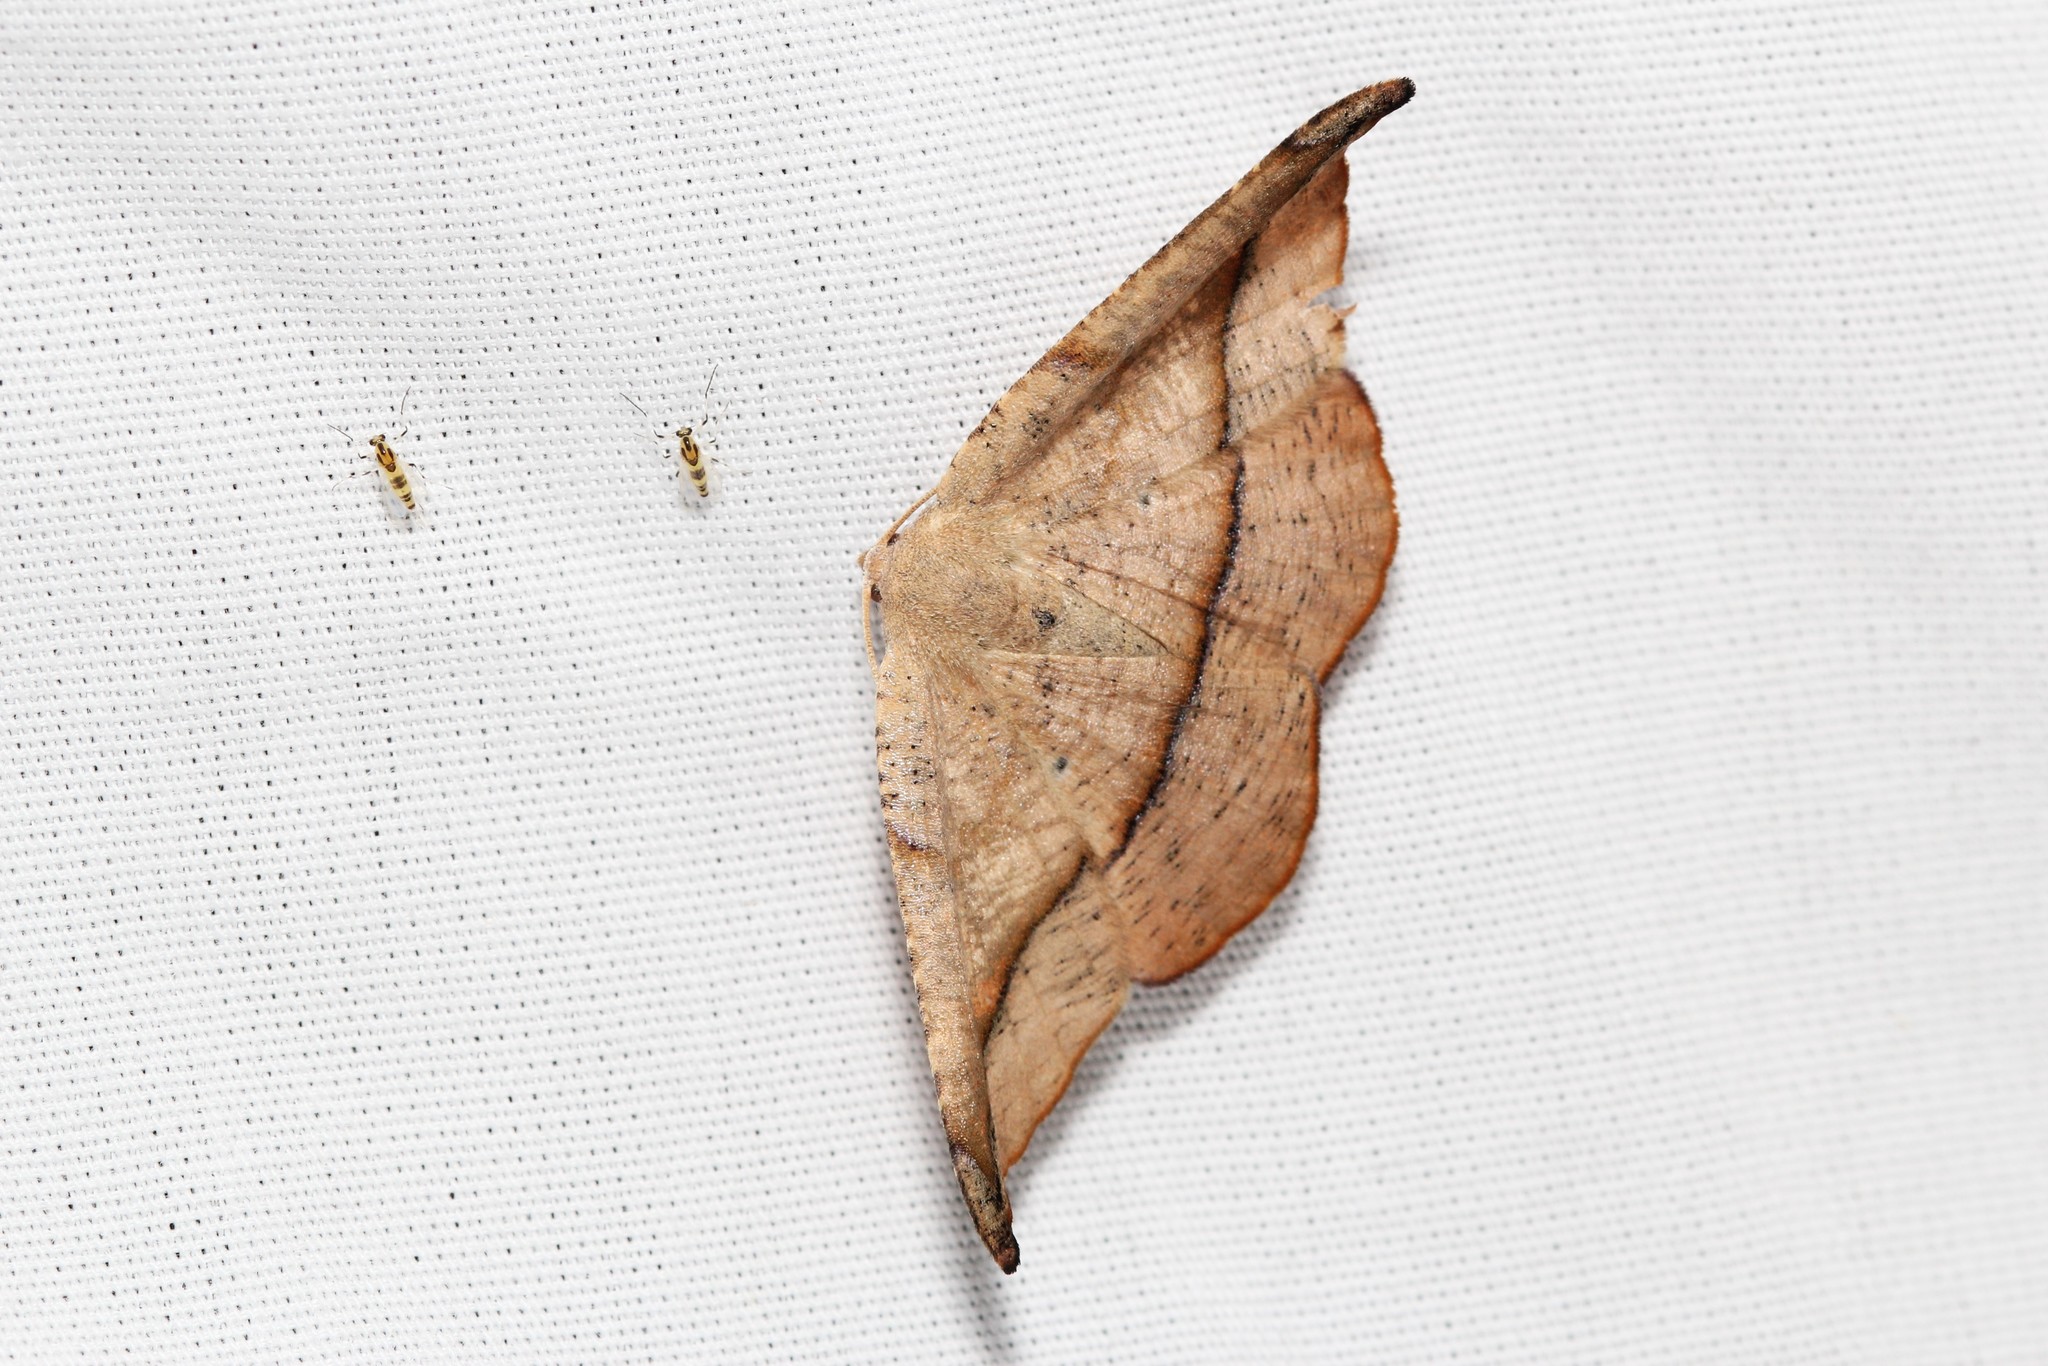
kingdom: Animalia
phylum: Arthropoda
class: Insecta
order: Lepidoptera
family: Geometridae
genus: Patalene
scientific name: Patalene olyzonaria
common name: Juniper geometer moth
